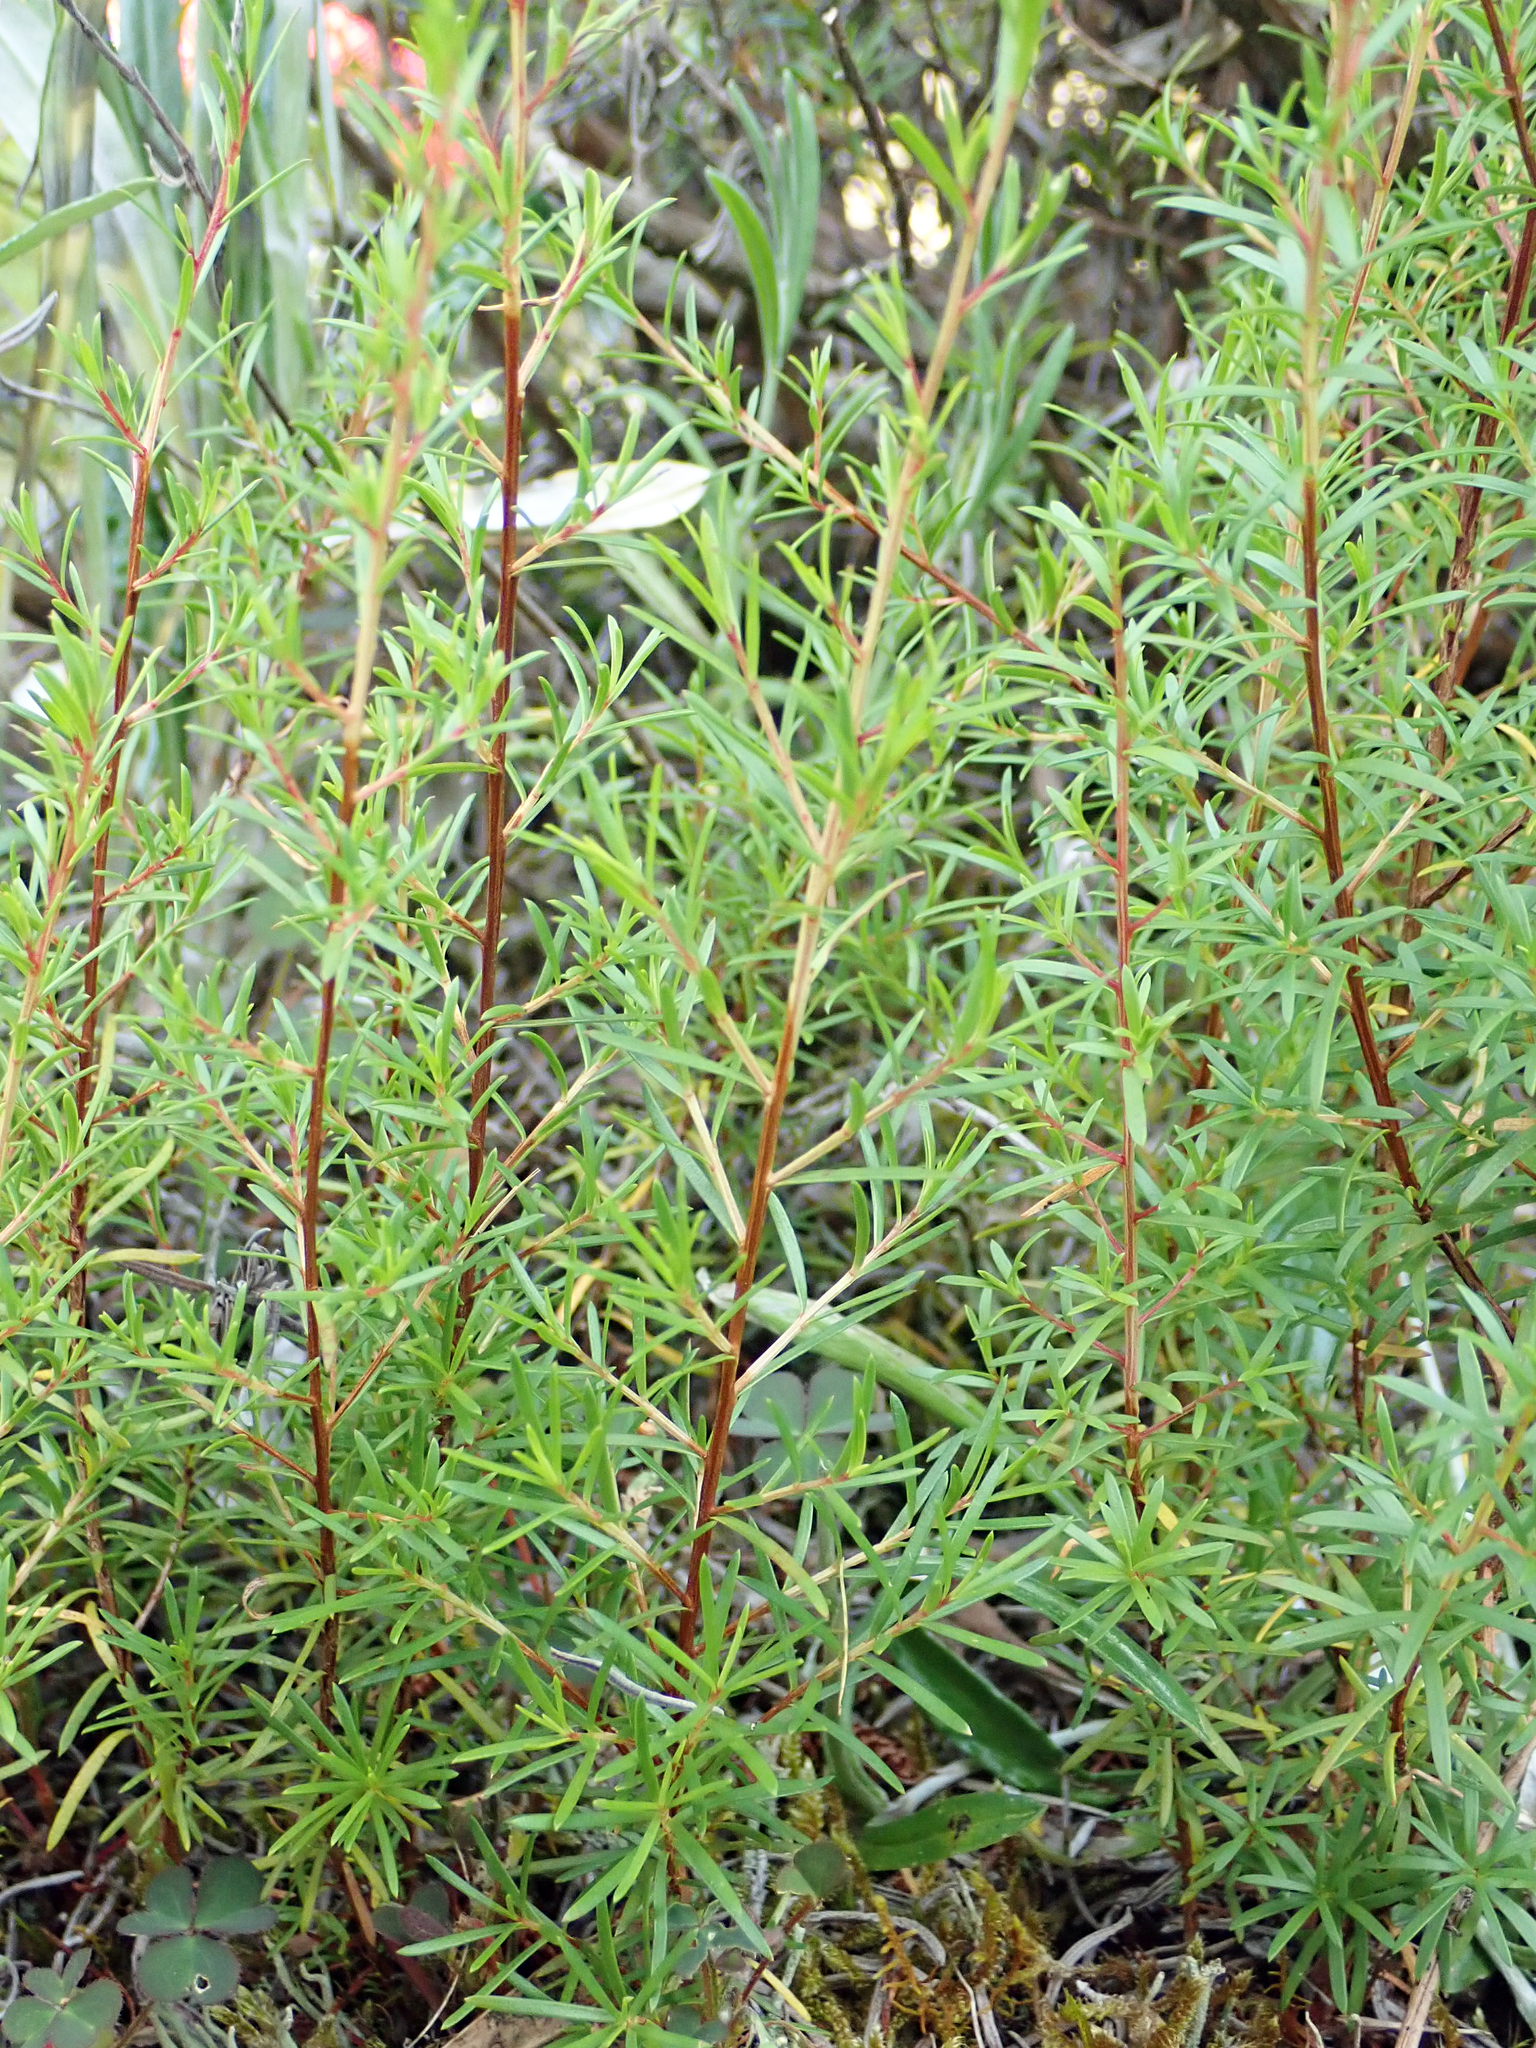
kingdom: Plantae
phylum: Tracheophyta
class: Magnoliopsida
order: Myrtales
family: Myrtaceae
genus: Kunzea
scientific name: Kunzea ericoides
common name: Burgan
